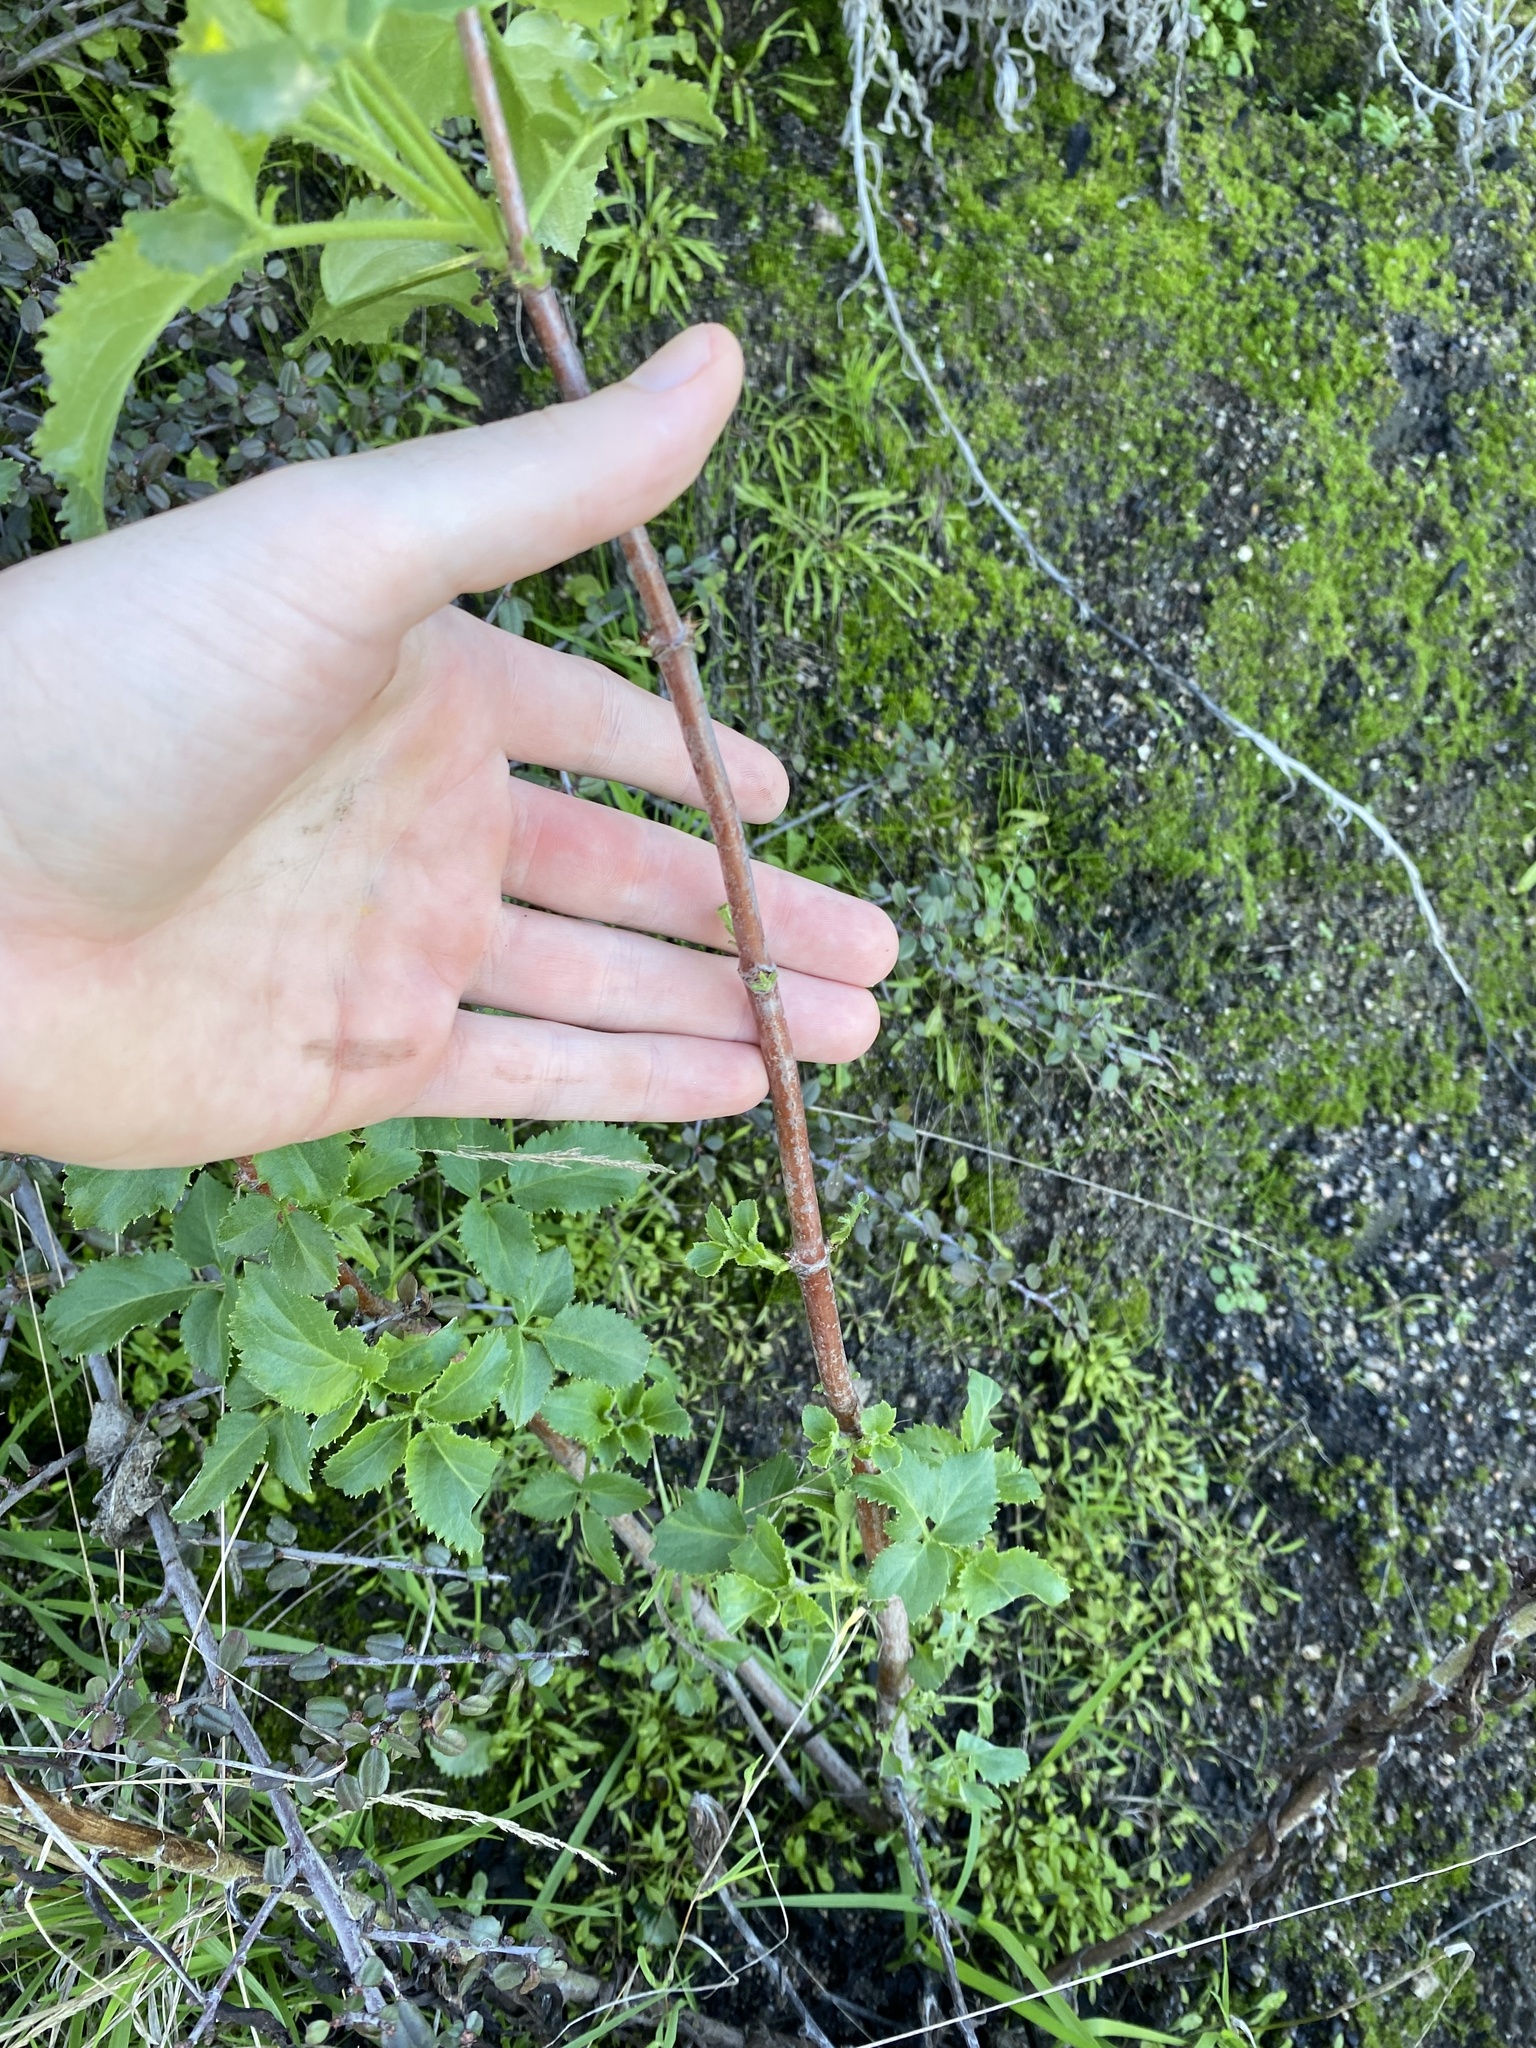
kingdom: Plantae
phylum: Tracheophyta
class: Magnoliopsida
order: Dipsacales
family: Viburnaceae
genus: Sambucus
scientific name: Sambucus cerulea
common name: Blue elder
